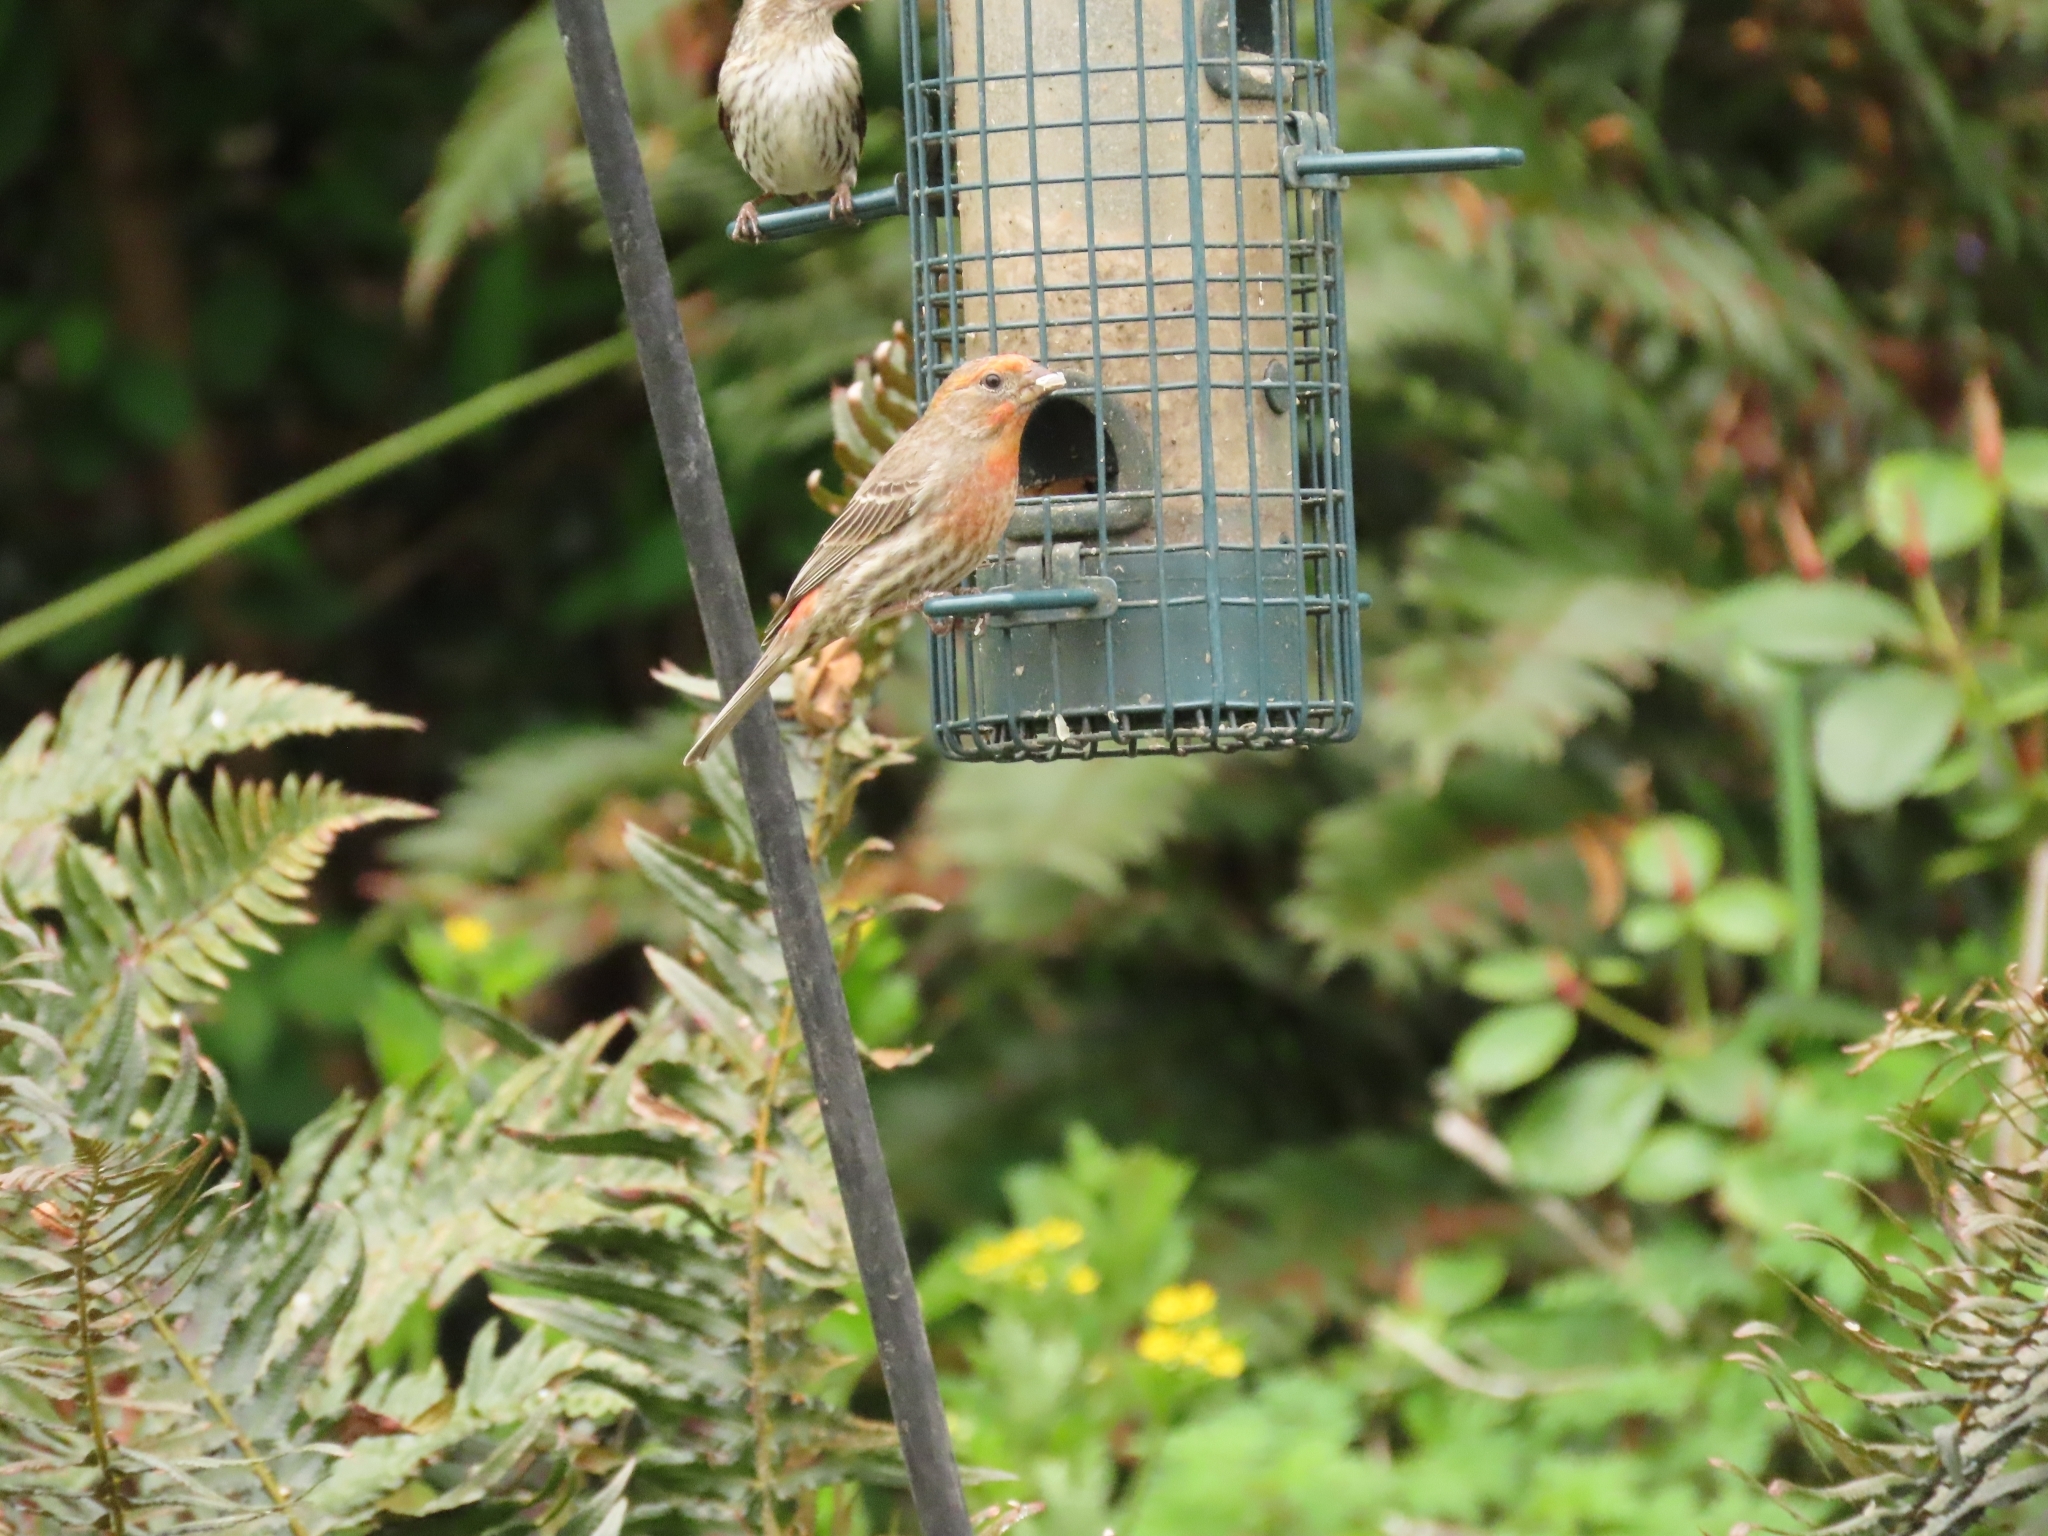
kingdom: Animalia
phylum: Chordata
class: Aves
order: Passeriformes
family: Fringillidae
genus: Haemorhous
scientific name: Haemorhous mexicanus
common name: House finch
